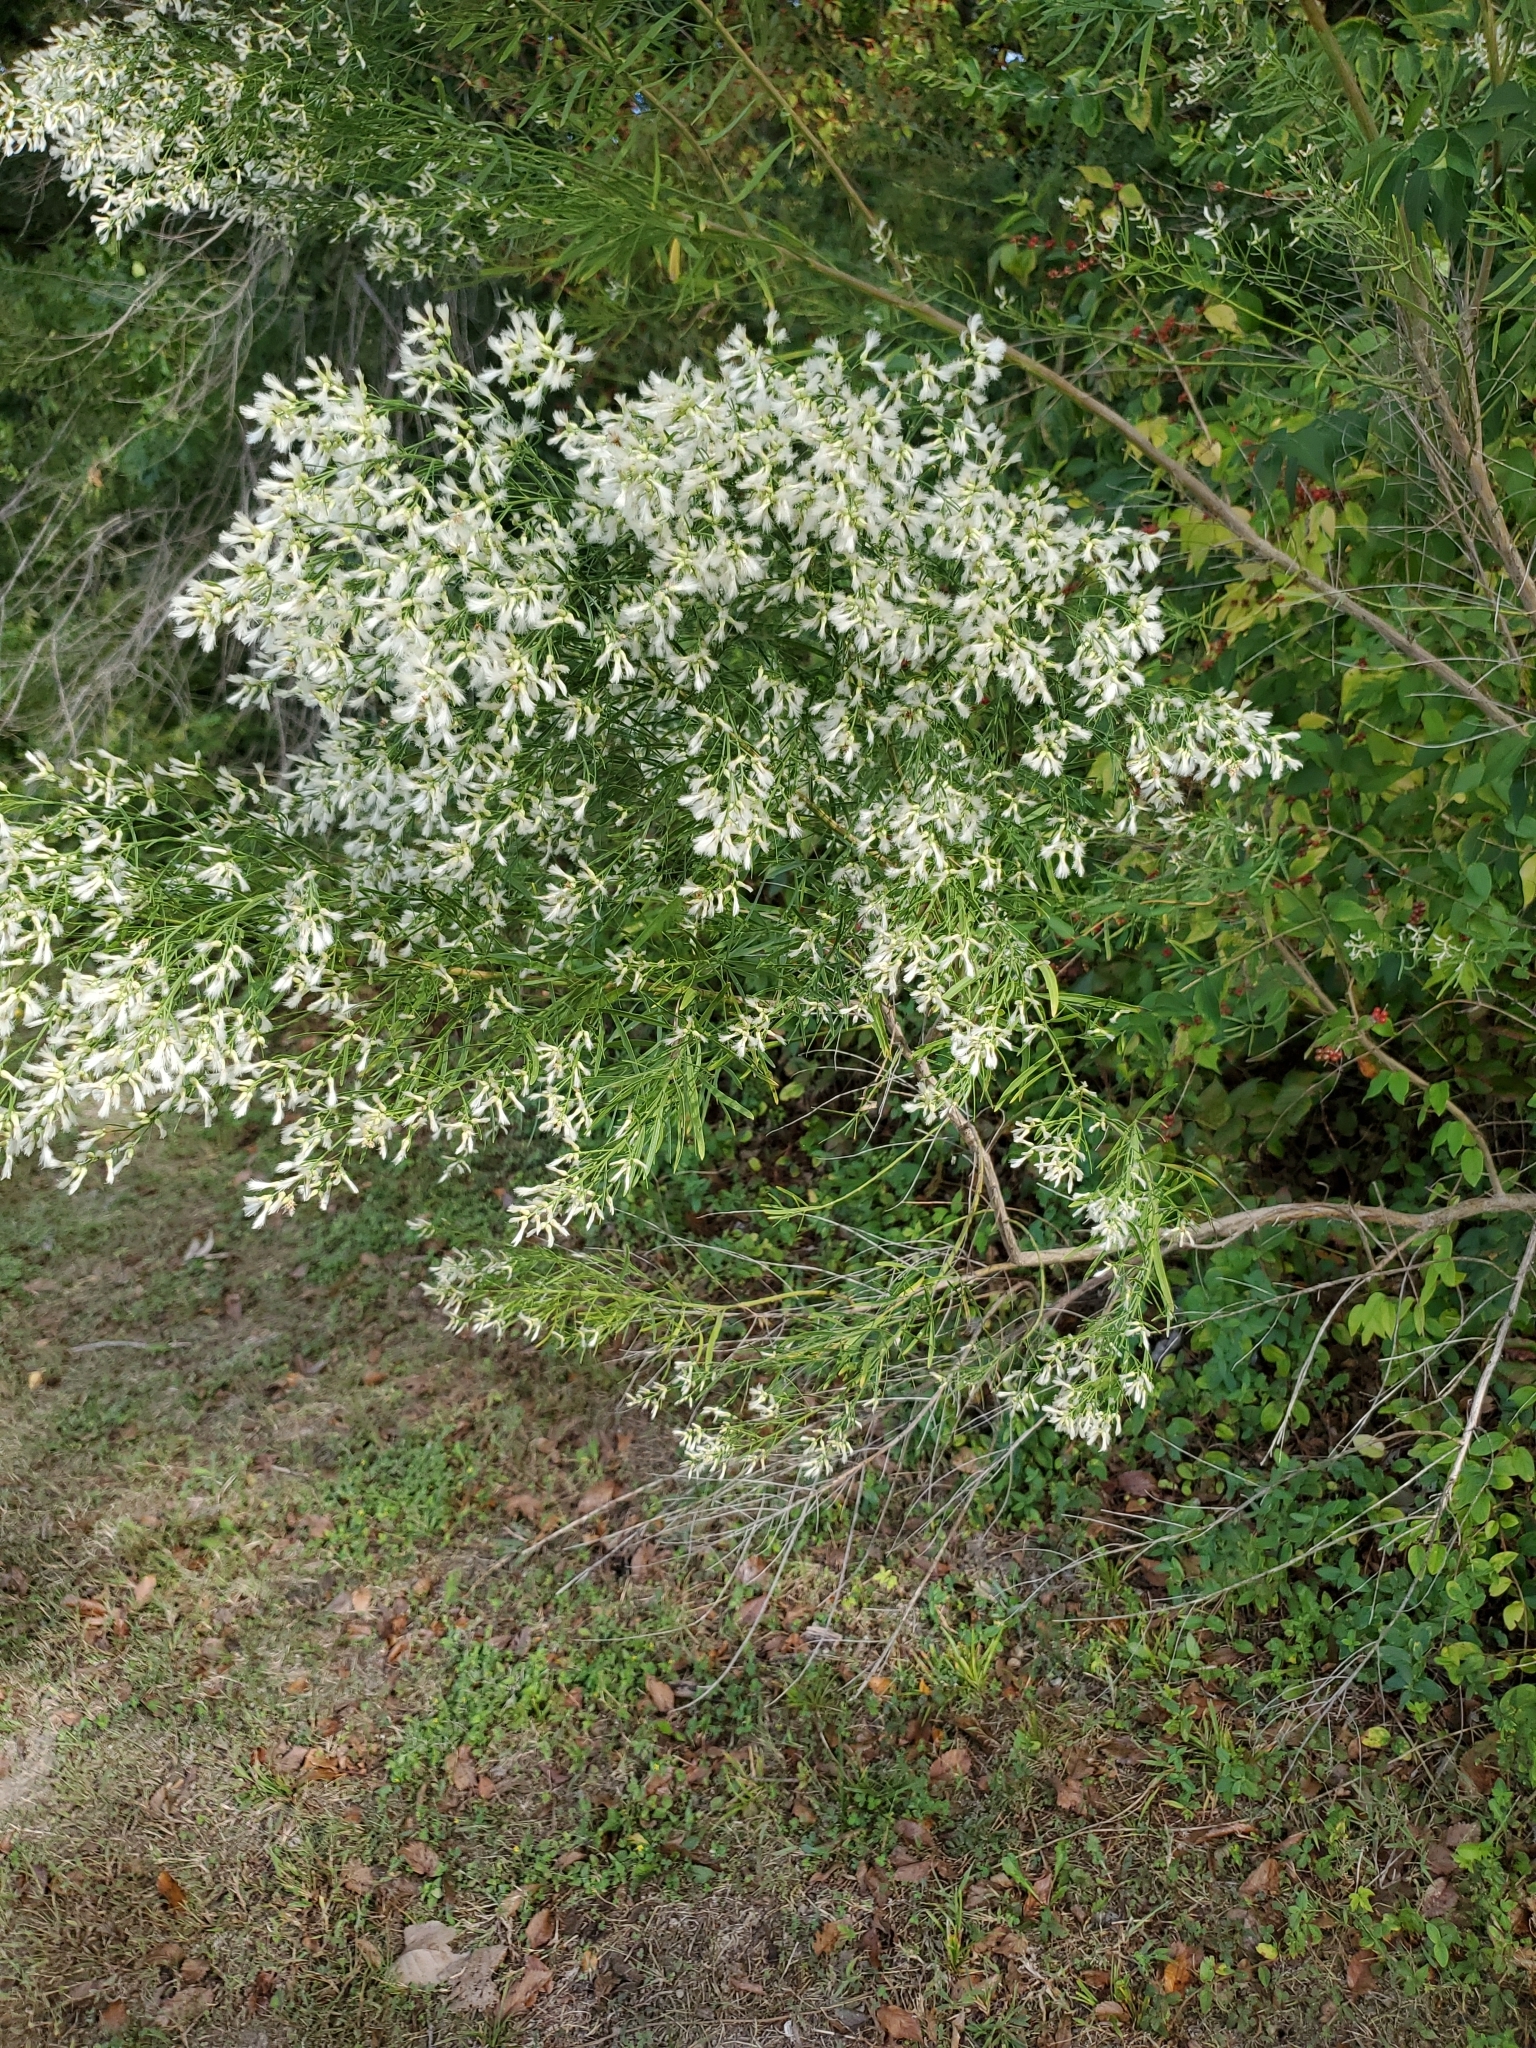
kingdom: Plantae
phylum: Tracheophyta
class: Magnoliopsida
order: Asterales
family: Asteraceae
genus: Baccharis
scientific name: Baccharis neglecta
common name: Roosevelt-weed
